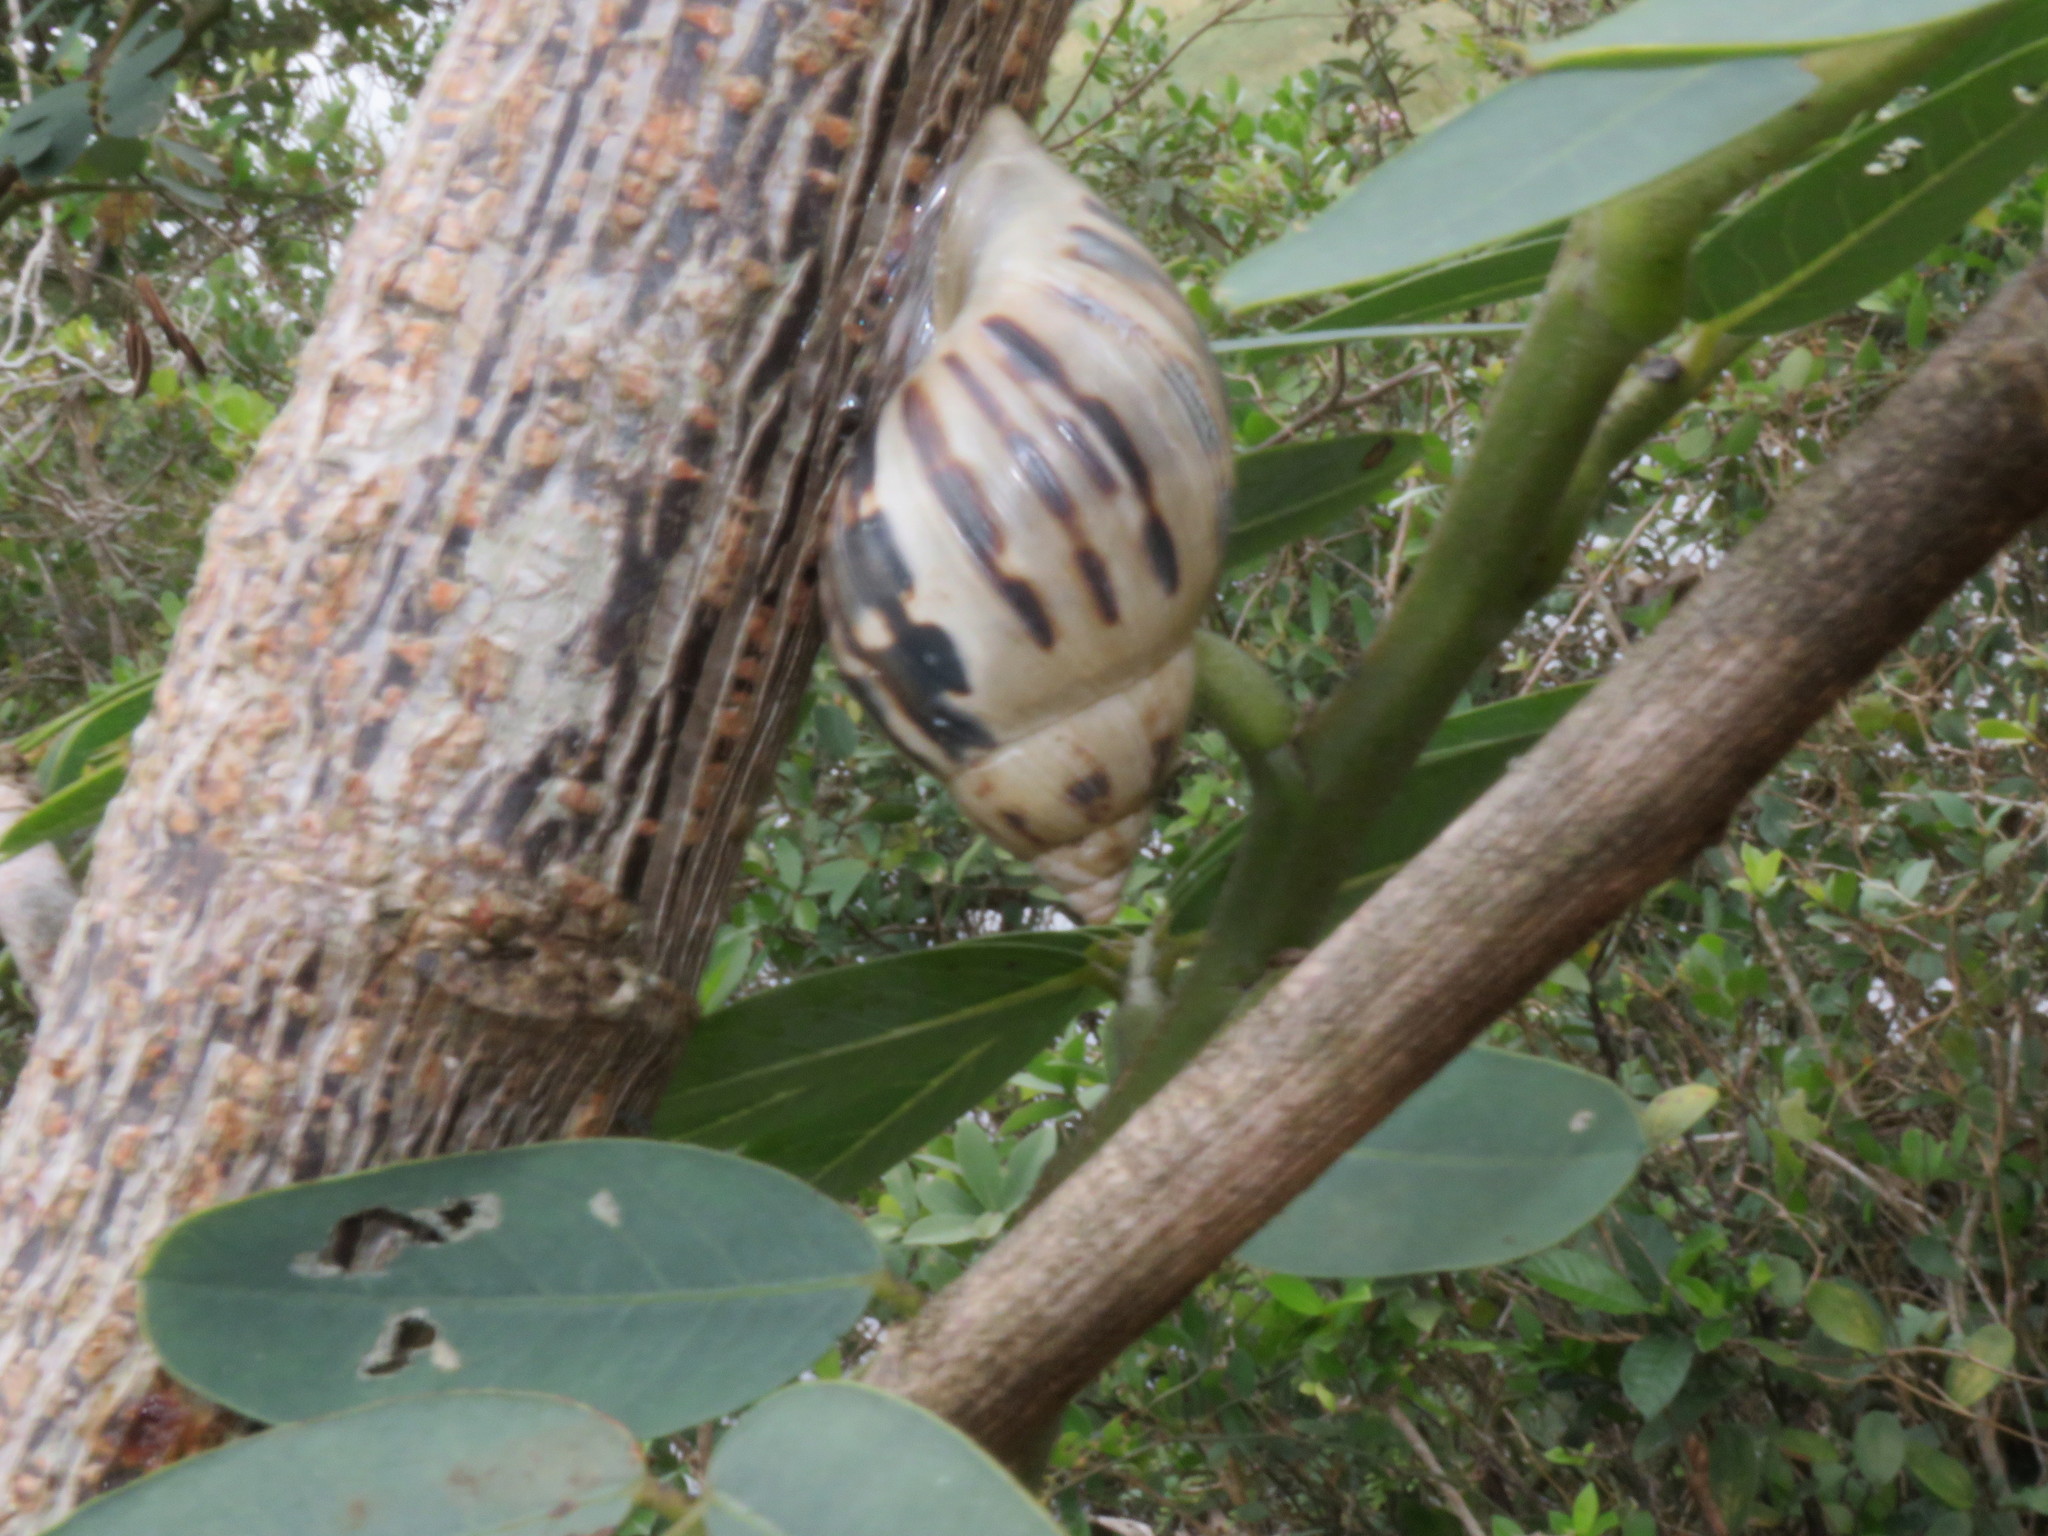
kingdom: Animalia
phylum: Mollusca
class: Gastropoda
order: Stylommatophora
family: Bulimulidae
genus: Drymaeus
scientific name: Drymaeus papyraceus
